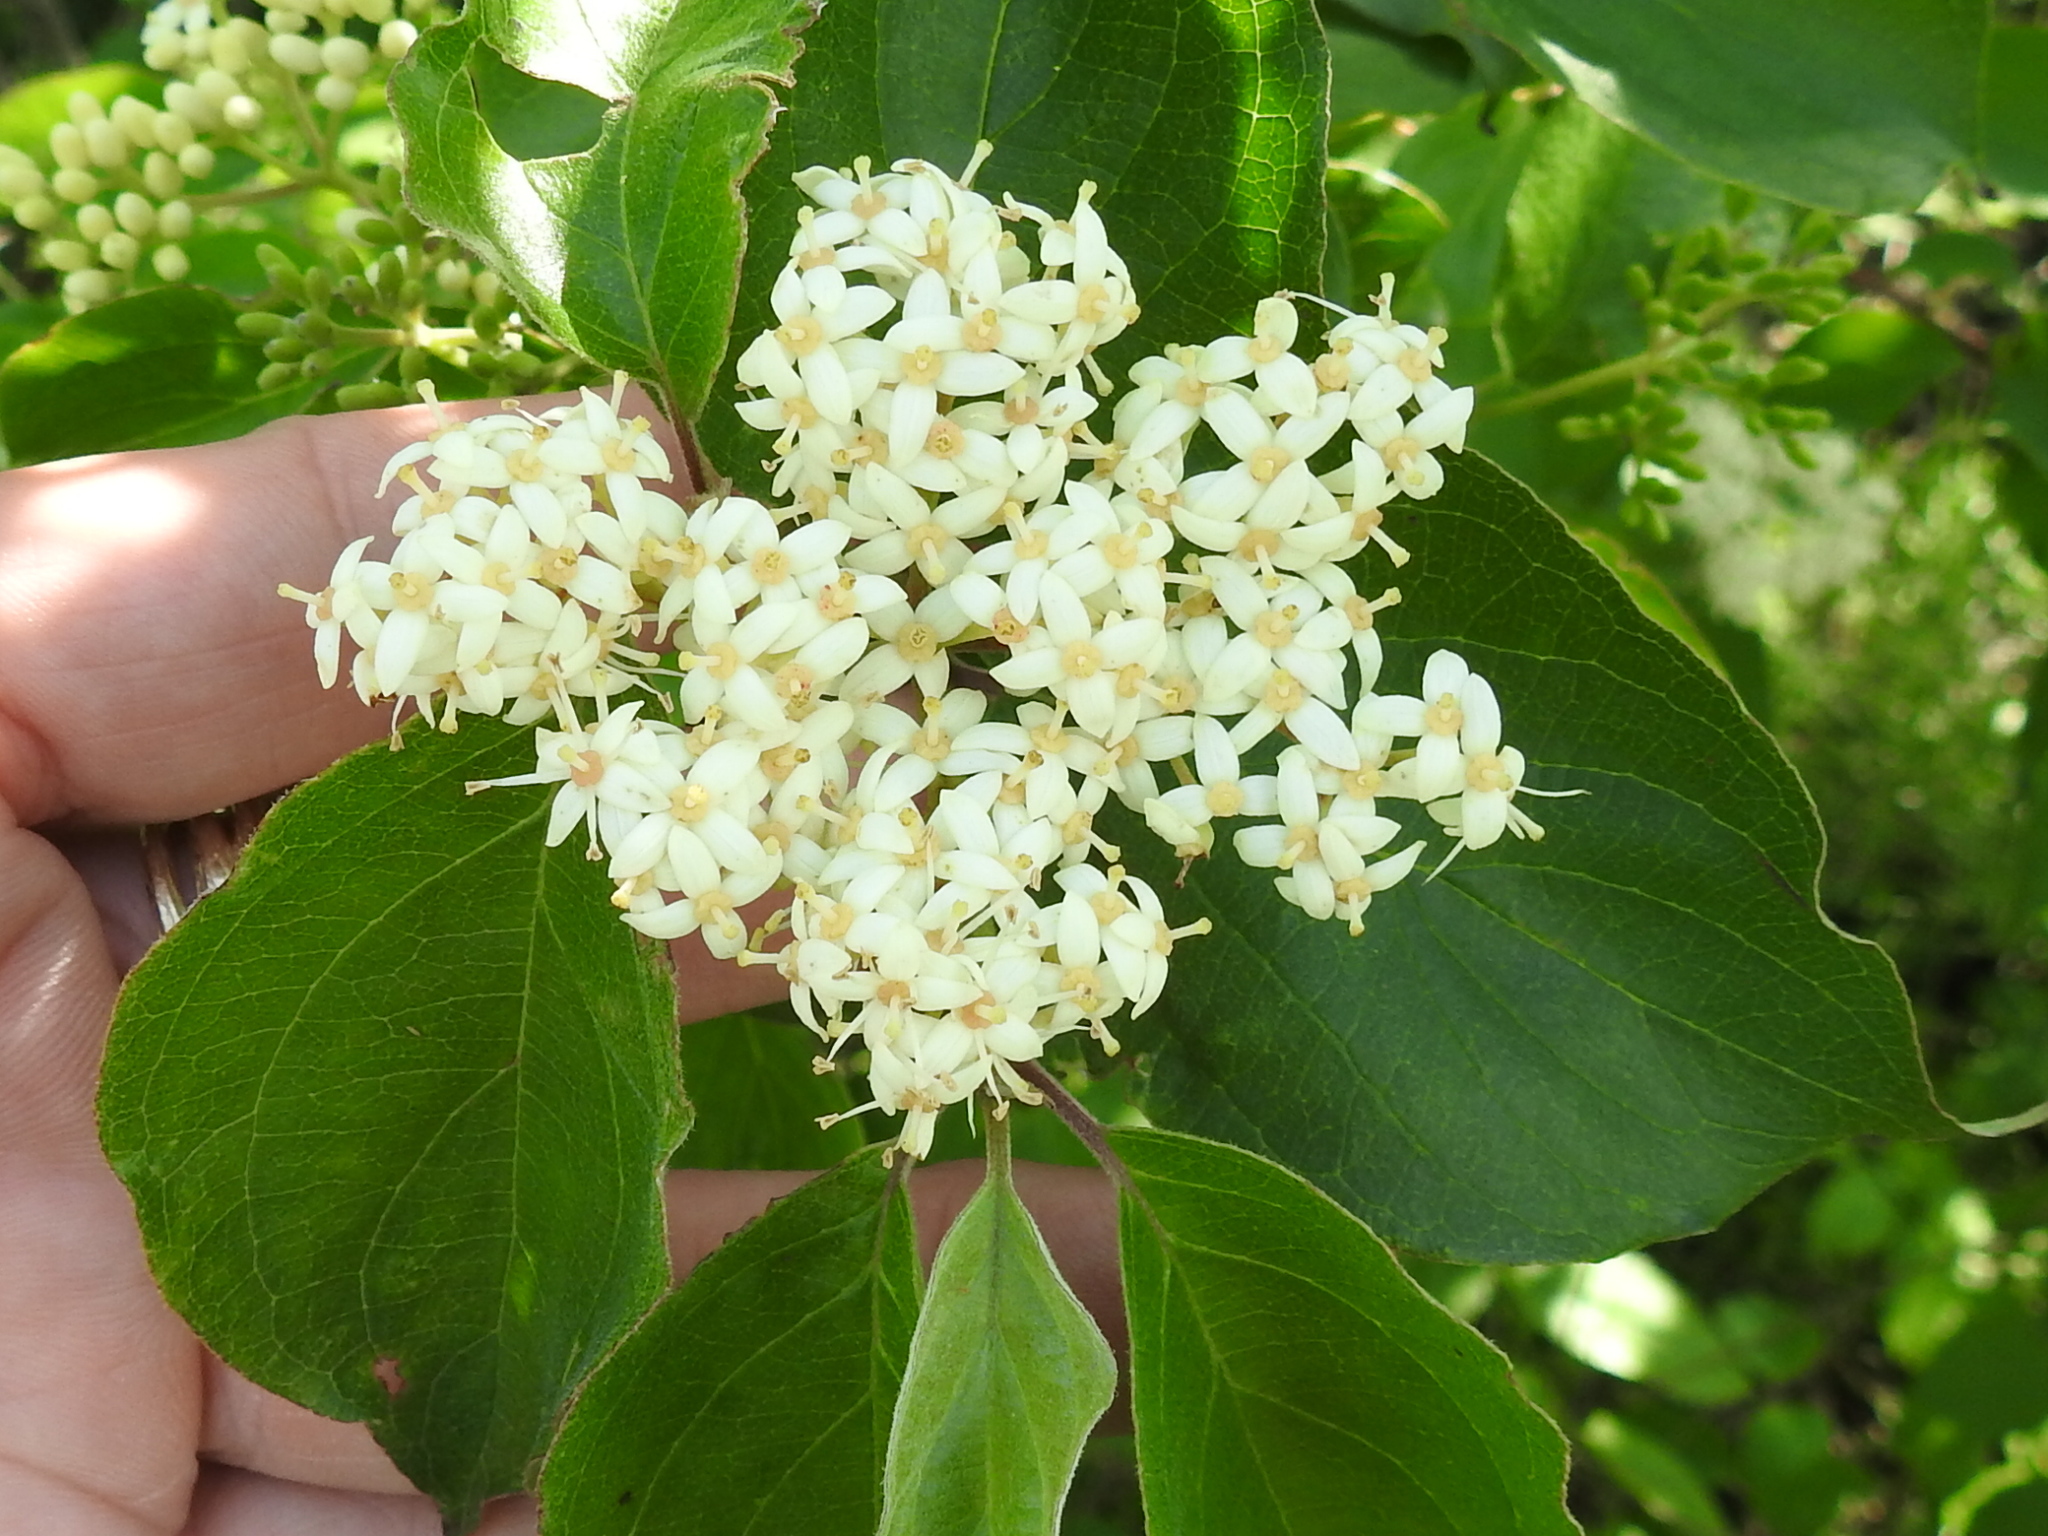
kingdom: Plantae
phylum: Tracheophyta
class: Magnoliopsida
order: Cornales
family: Cornaceae
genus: Cornus
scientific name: Cornus drummondii
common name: Rough-leaf dogwood
